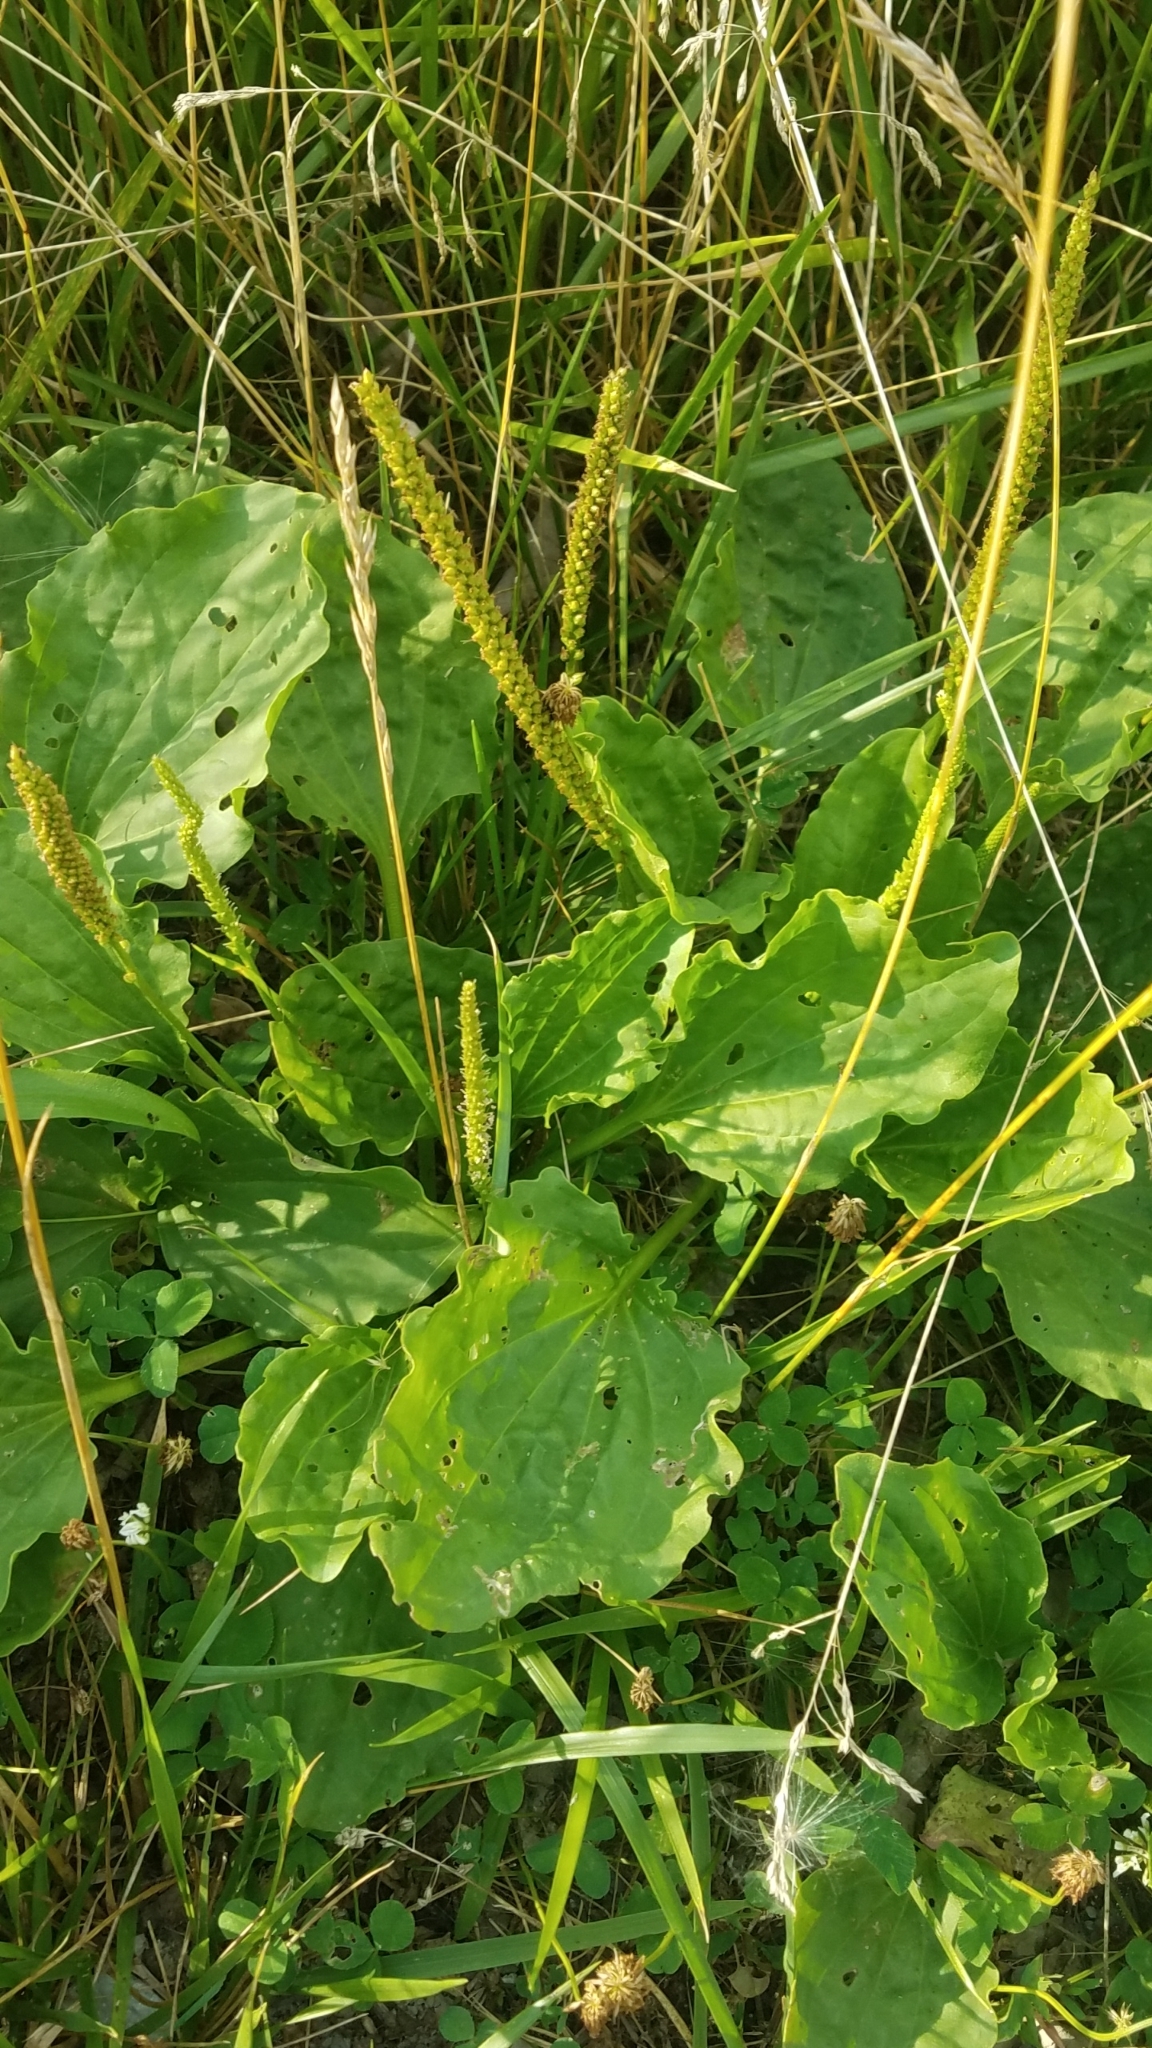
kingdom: Plantae
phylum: Tracheophyta
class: Magnoliopsida
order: Lamiales
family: Plantaginaceae
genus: Plantago
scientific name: Plantago major
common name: Common plantain
